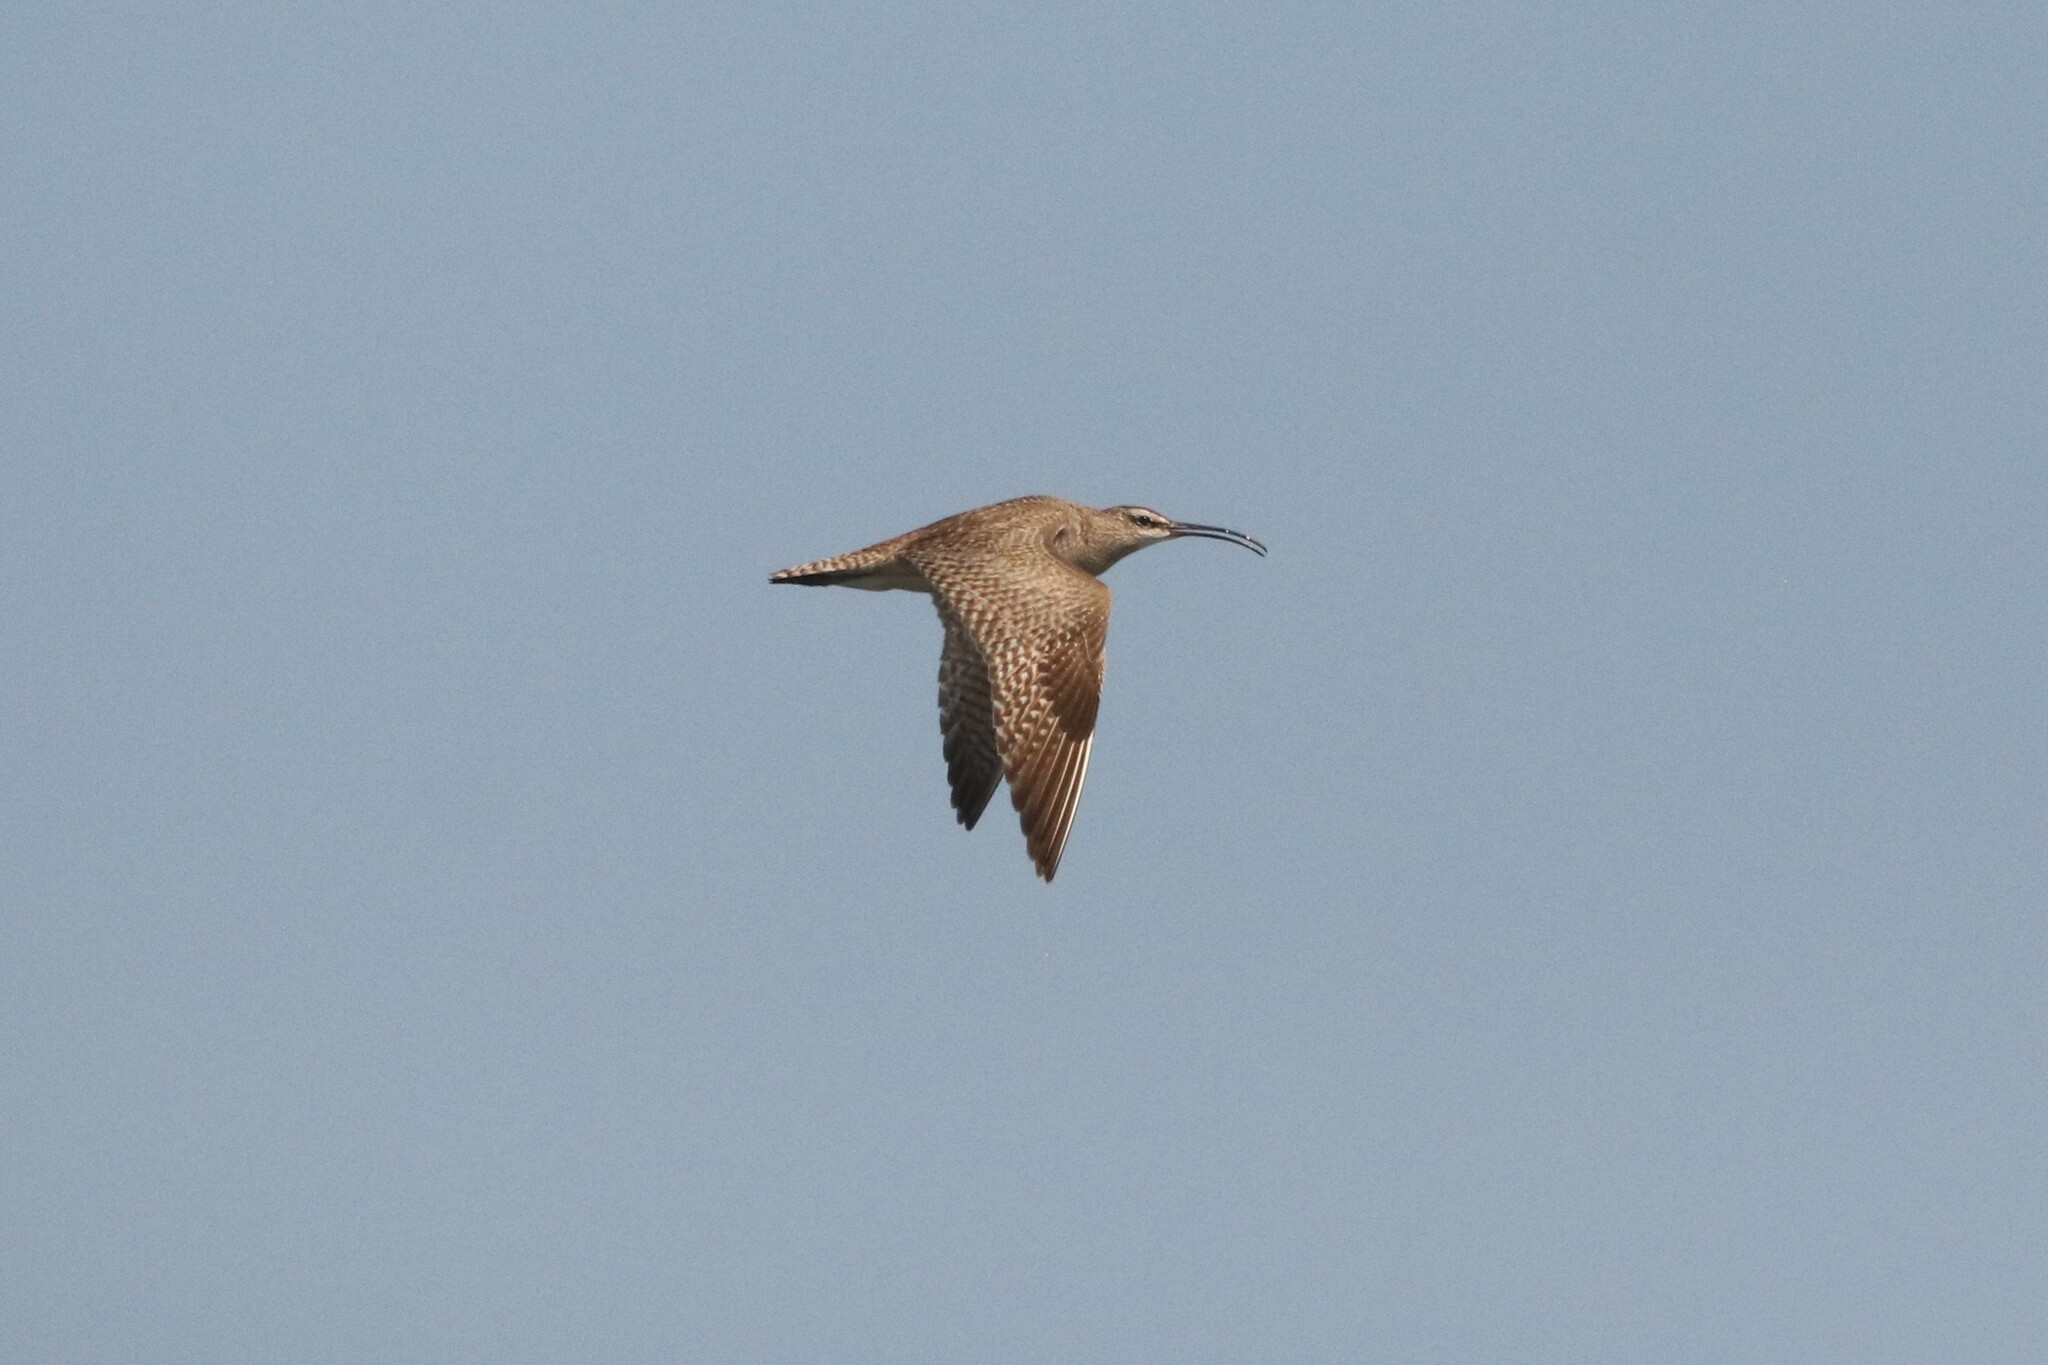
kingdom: Animalia
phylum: Chordata
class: Aves
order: Charadriiformes
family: Scolopacidae
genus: Numenius
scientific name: Numenius phaeopus
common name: Whimbrel
